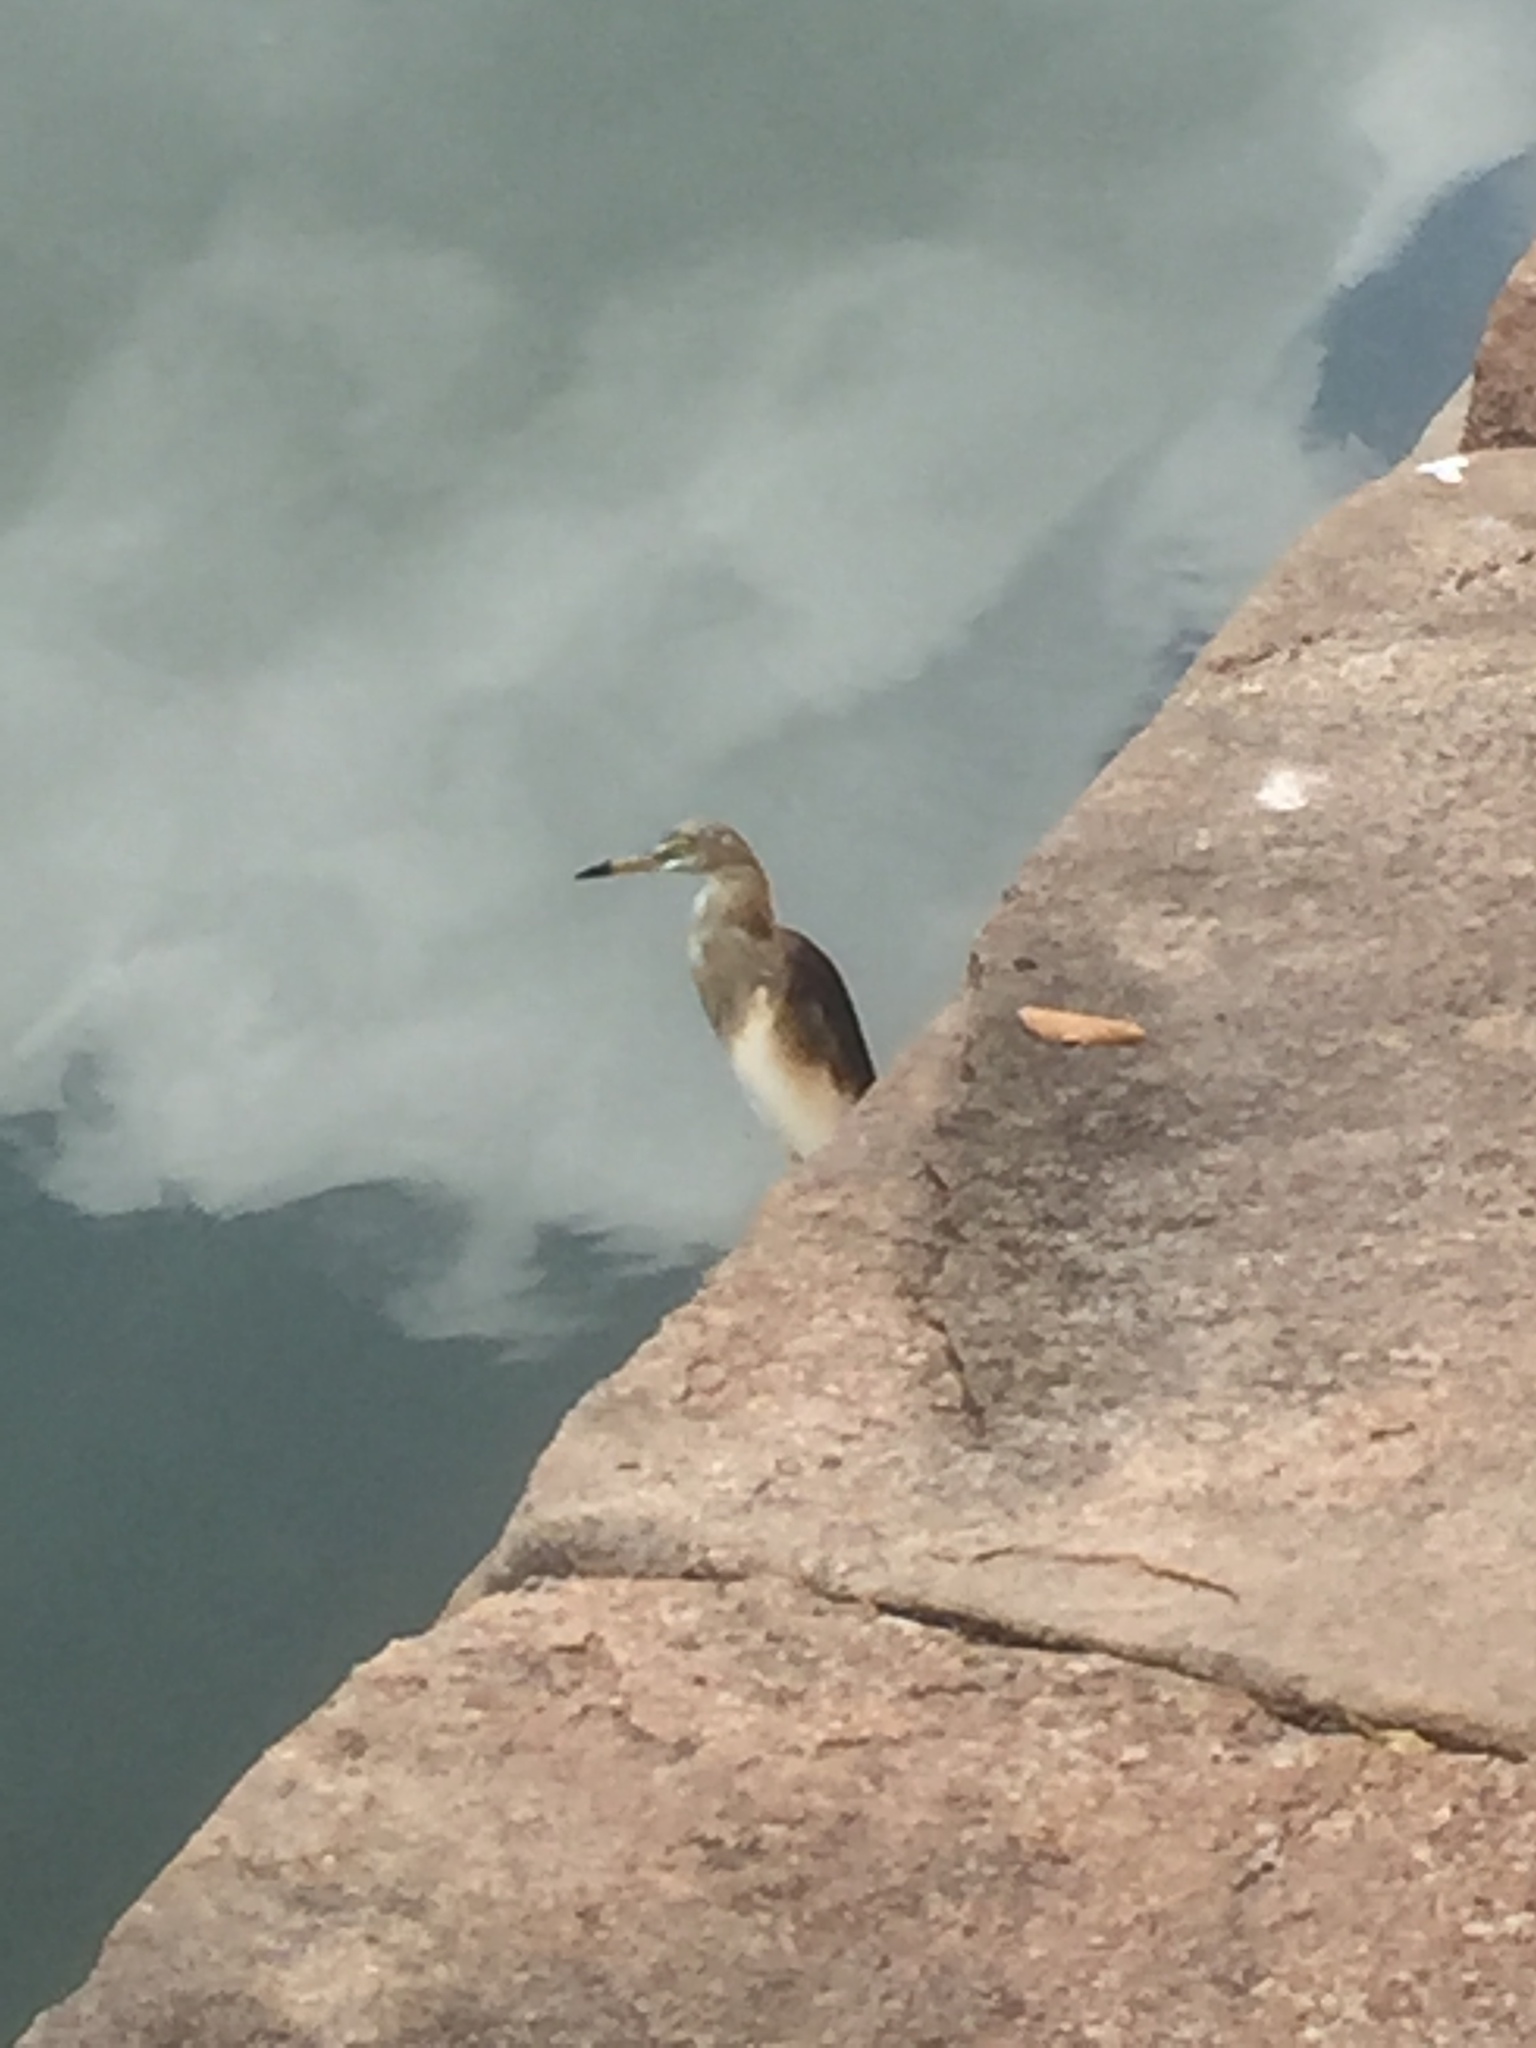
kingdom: Animalia
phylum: Chordata
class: Aves
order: Pelecaniformes
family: Ardeidae
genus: Ardeola
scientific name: Ardeola grayii
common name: Indian pond heron
